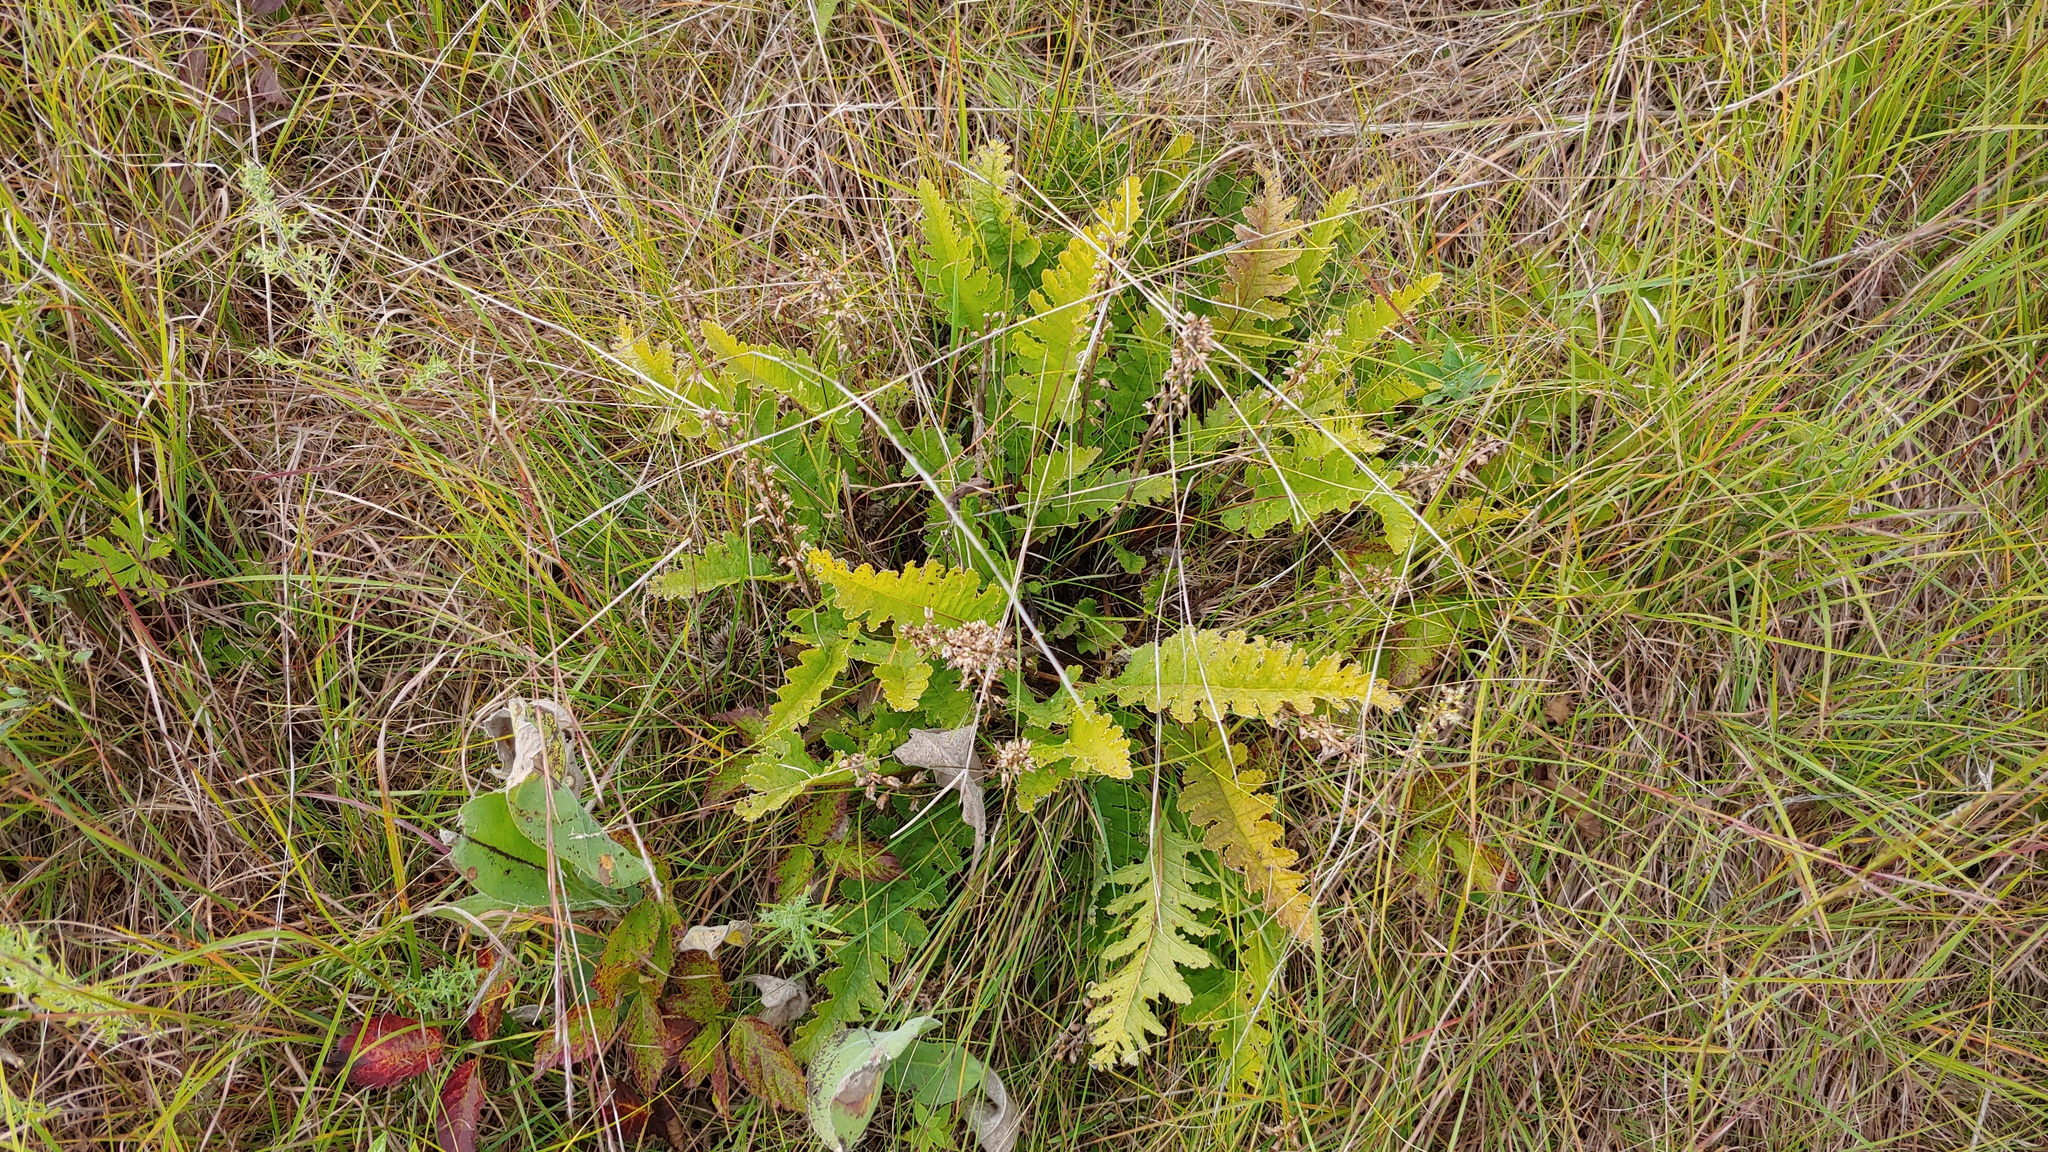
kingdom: Plantae
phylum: Tracheophyta
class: Magnoliopsida
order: Lamiales
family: Orobanchaceae
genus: Pedicularis
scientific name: Pedicularis canadensis
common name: Early lousewort
